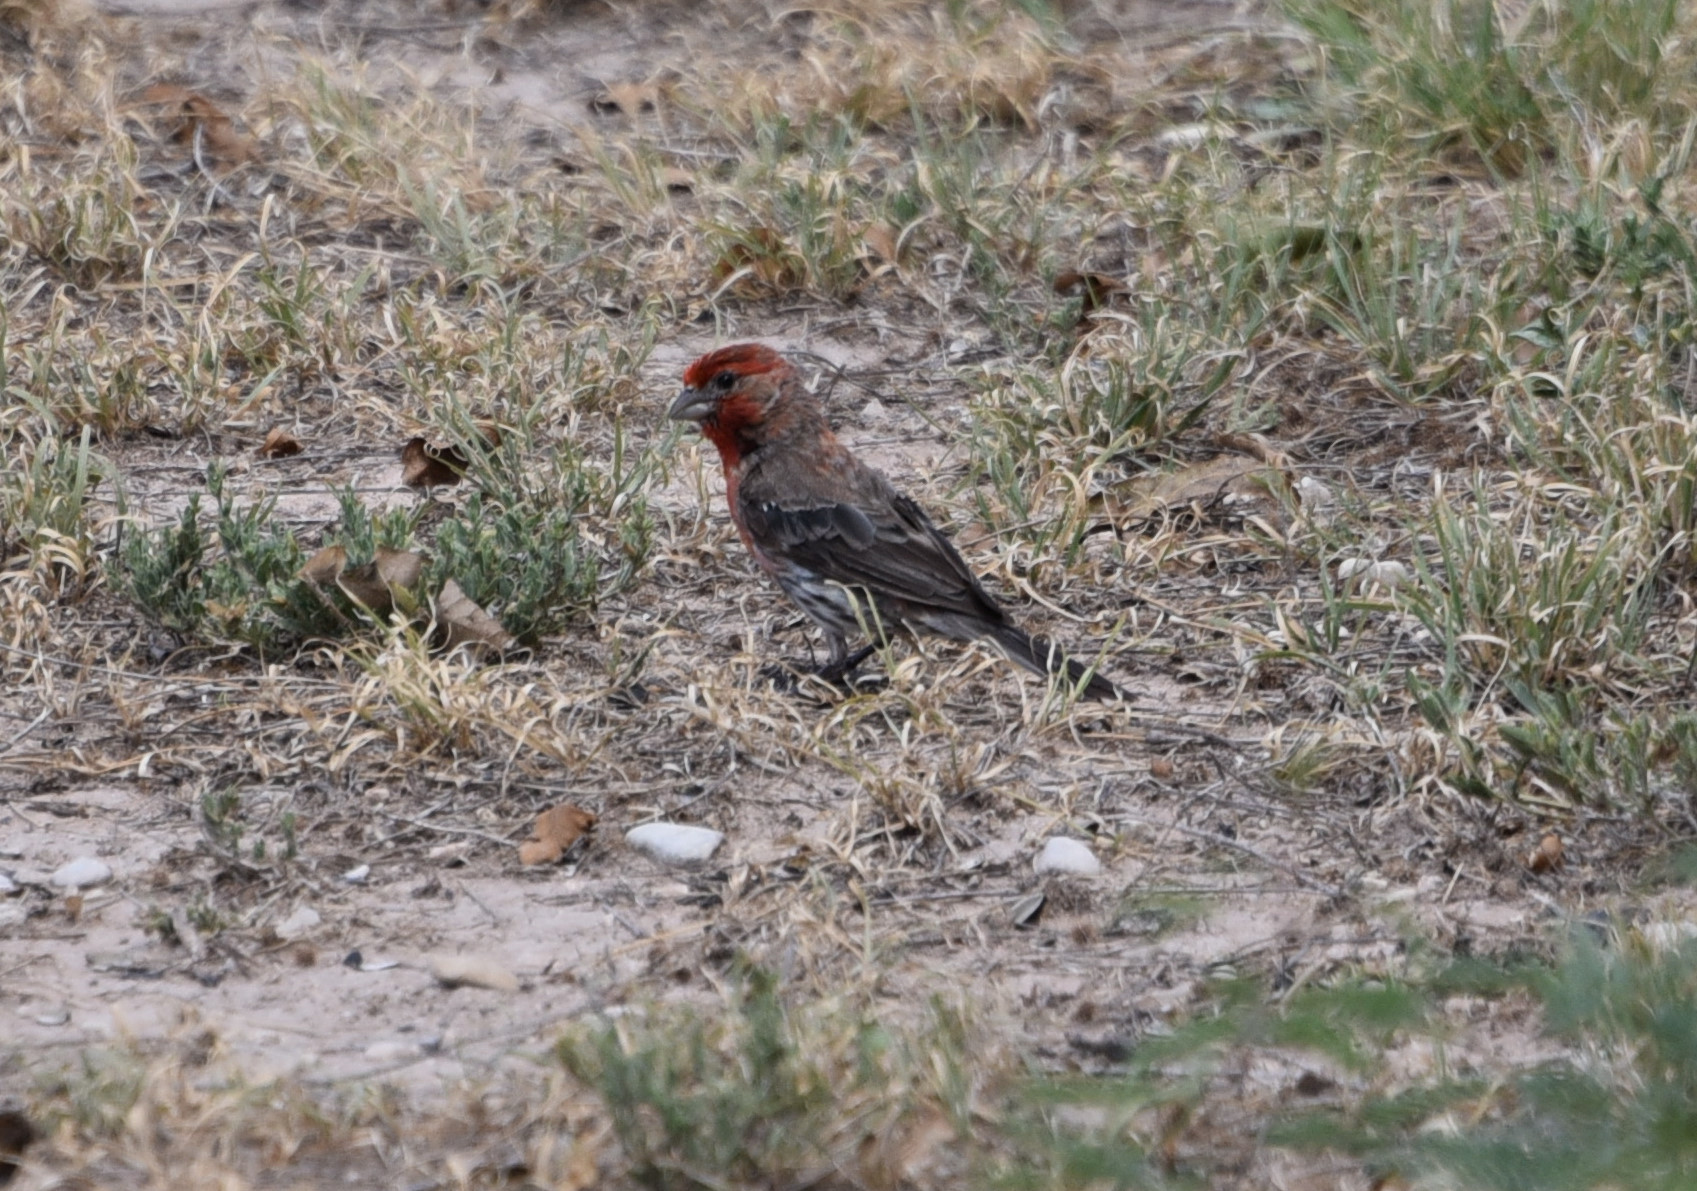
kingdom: Animalia
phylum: Chordata
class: Aves
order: Passeriformes
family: Fringillidae
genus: Haemorhous
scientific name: Haemorhous mexicanus
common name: House finch
